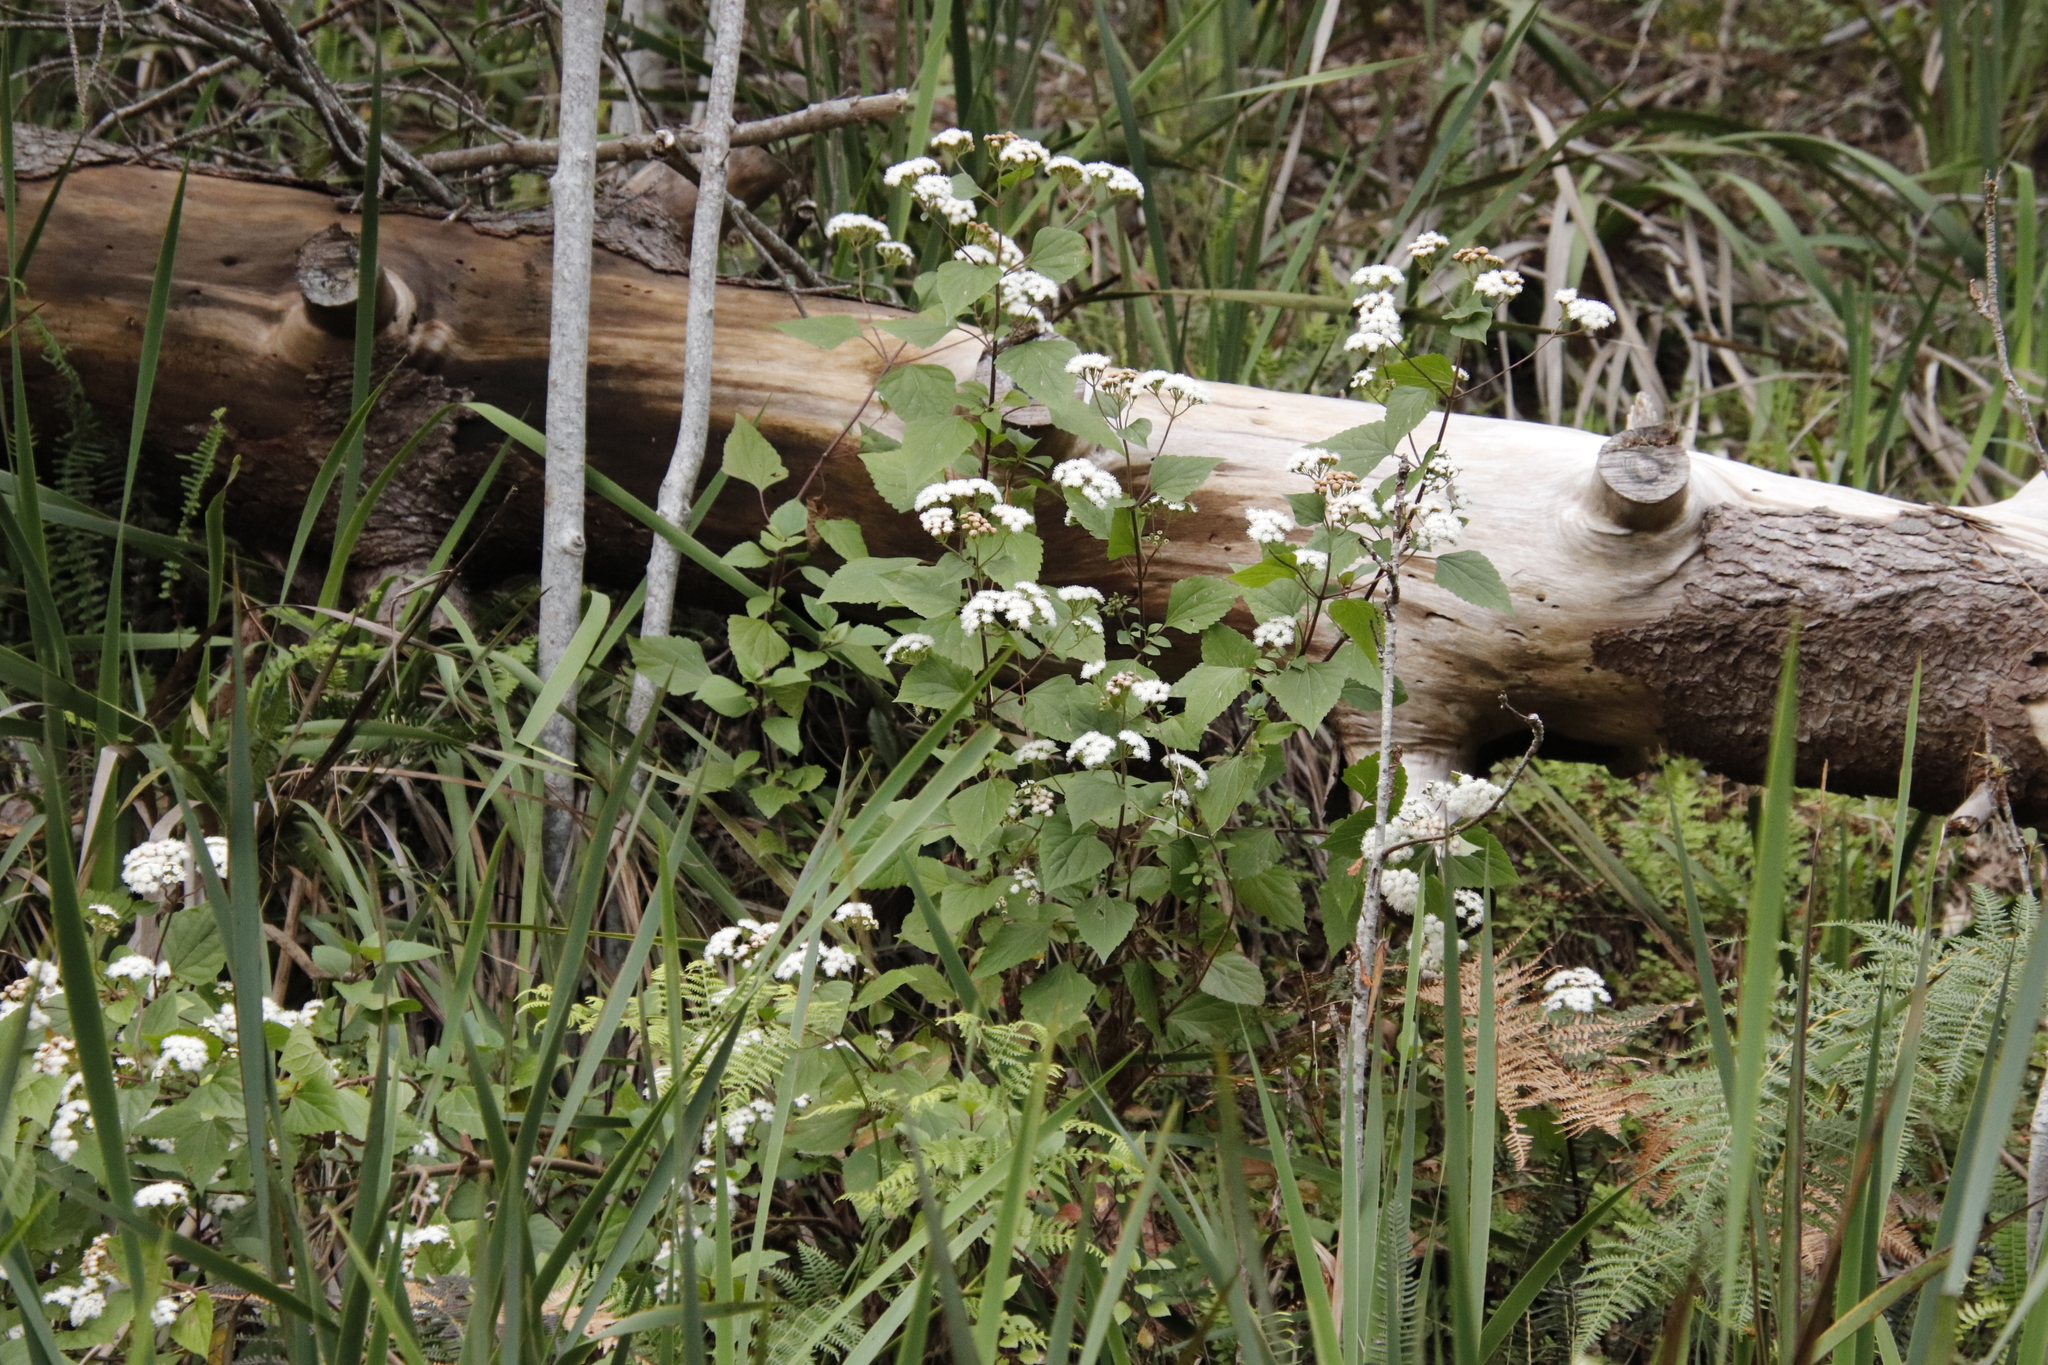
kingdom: Plantae
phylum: Tracheophyta
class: Magnoliopsida
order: Asterales
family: Asteraceae
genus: Ageratina
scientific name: Ageratina adenophora
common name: Sticky snakeroot
